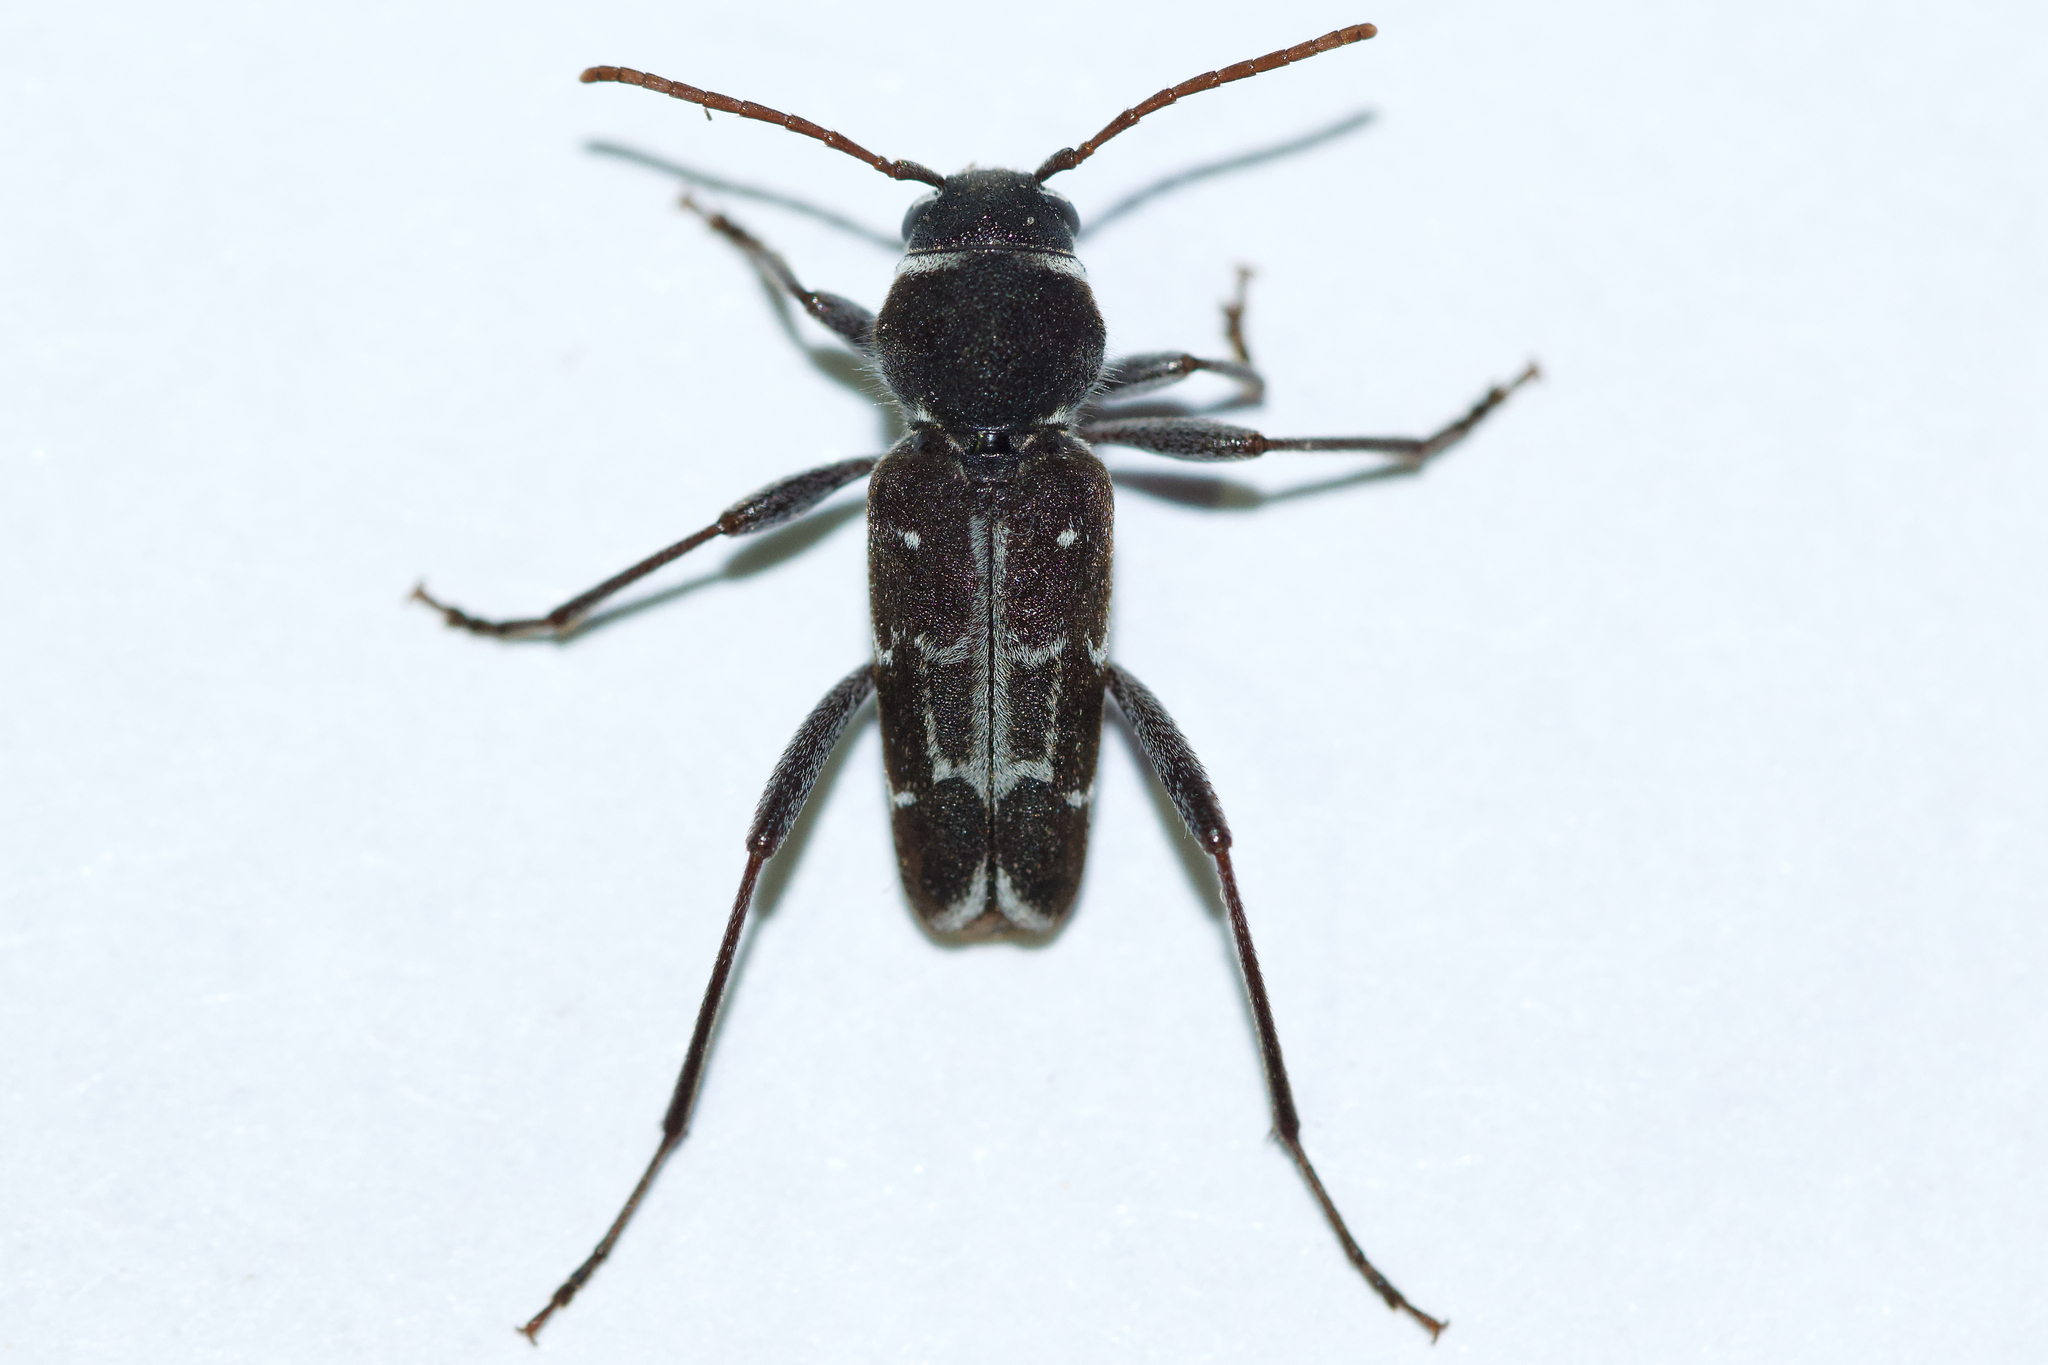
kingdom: Animalia
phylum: Arthropoda
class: Insecta
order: Coleoptera
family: Cerambycidae
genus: Xylotrechus
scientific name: Xylotrechus undulatus
